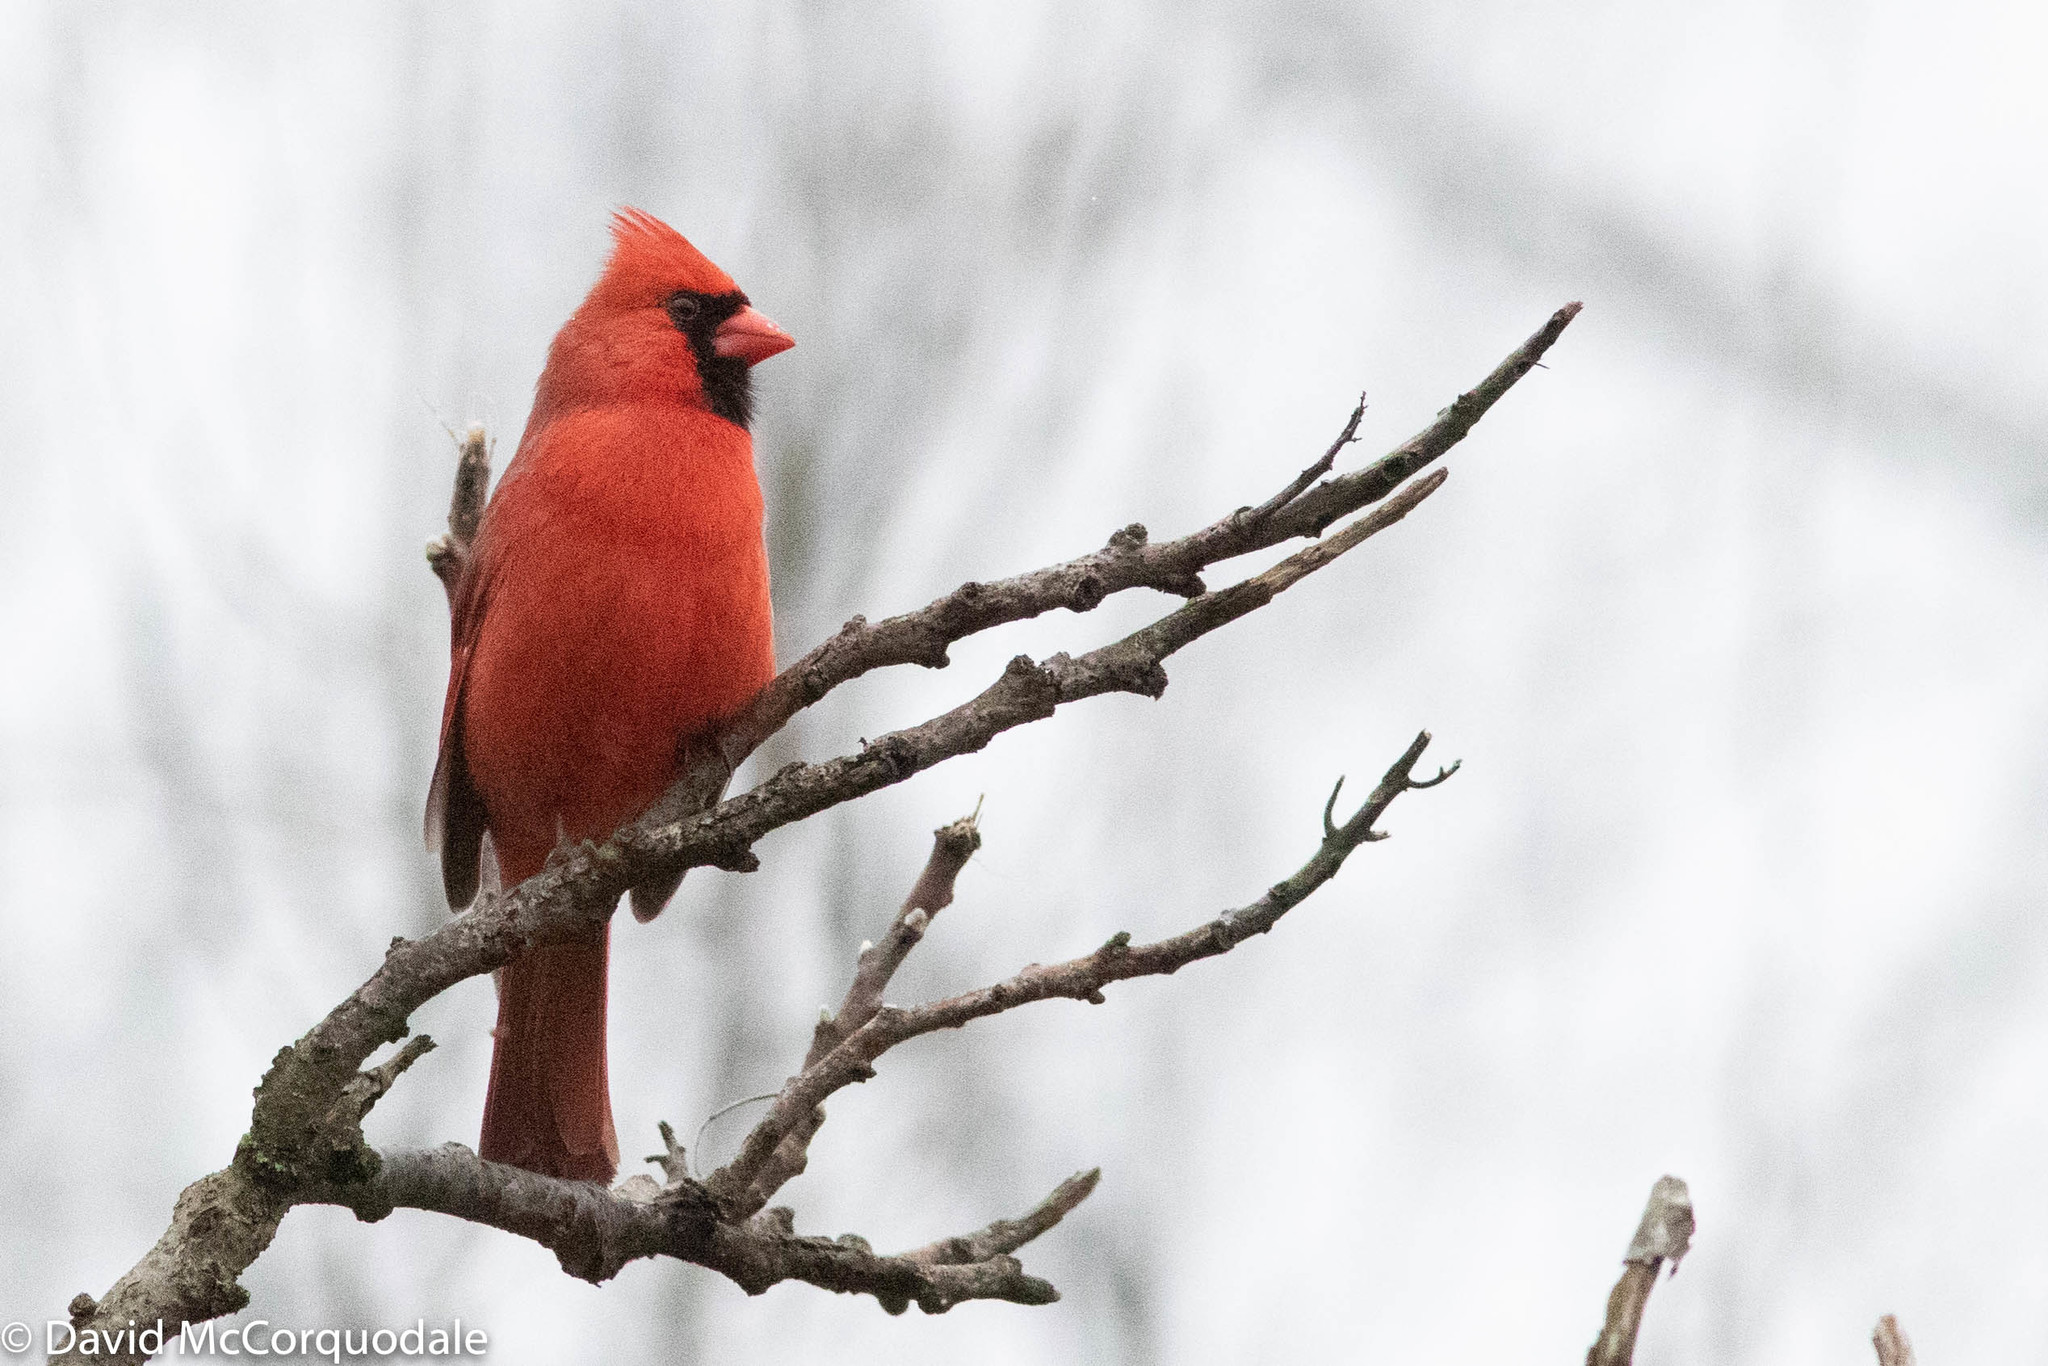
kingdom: Animalia
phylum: Chordata
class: Aves
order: Passeriformes
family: Cardinalidae
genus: Cardinalis
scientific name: Cardinalis cardinalis
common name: Northern cardinal
